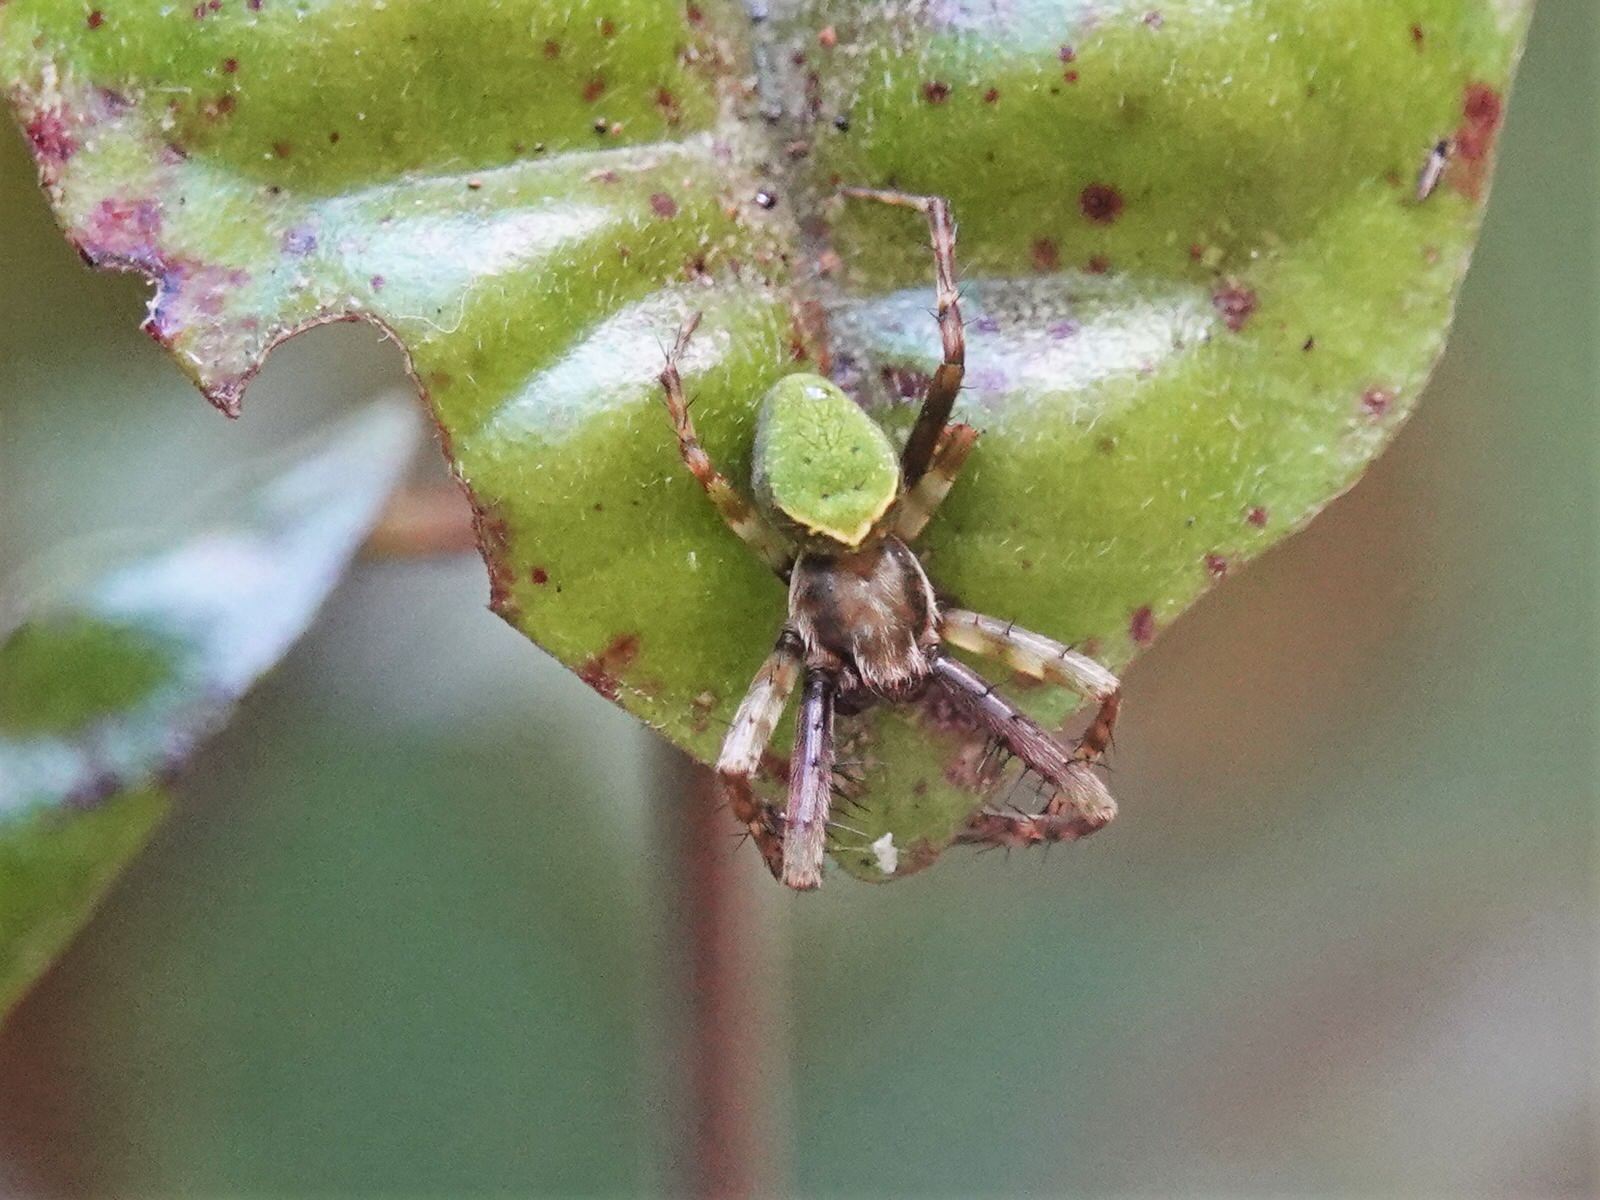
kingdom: Animalia
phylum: Arthropoda
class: Arachnida
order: Araneae
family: Araneidae
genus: Colaranea
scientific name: Colaranea viriditas
